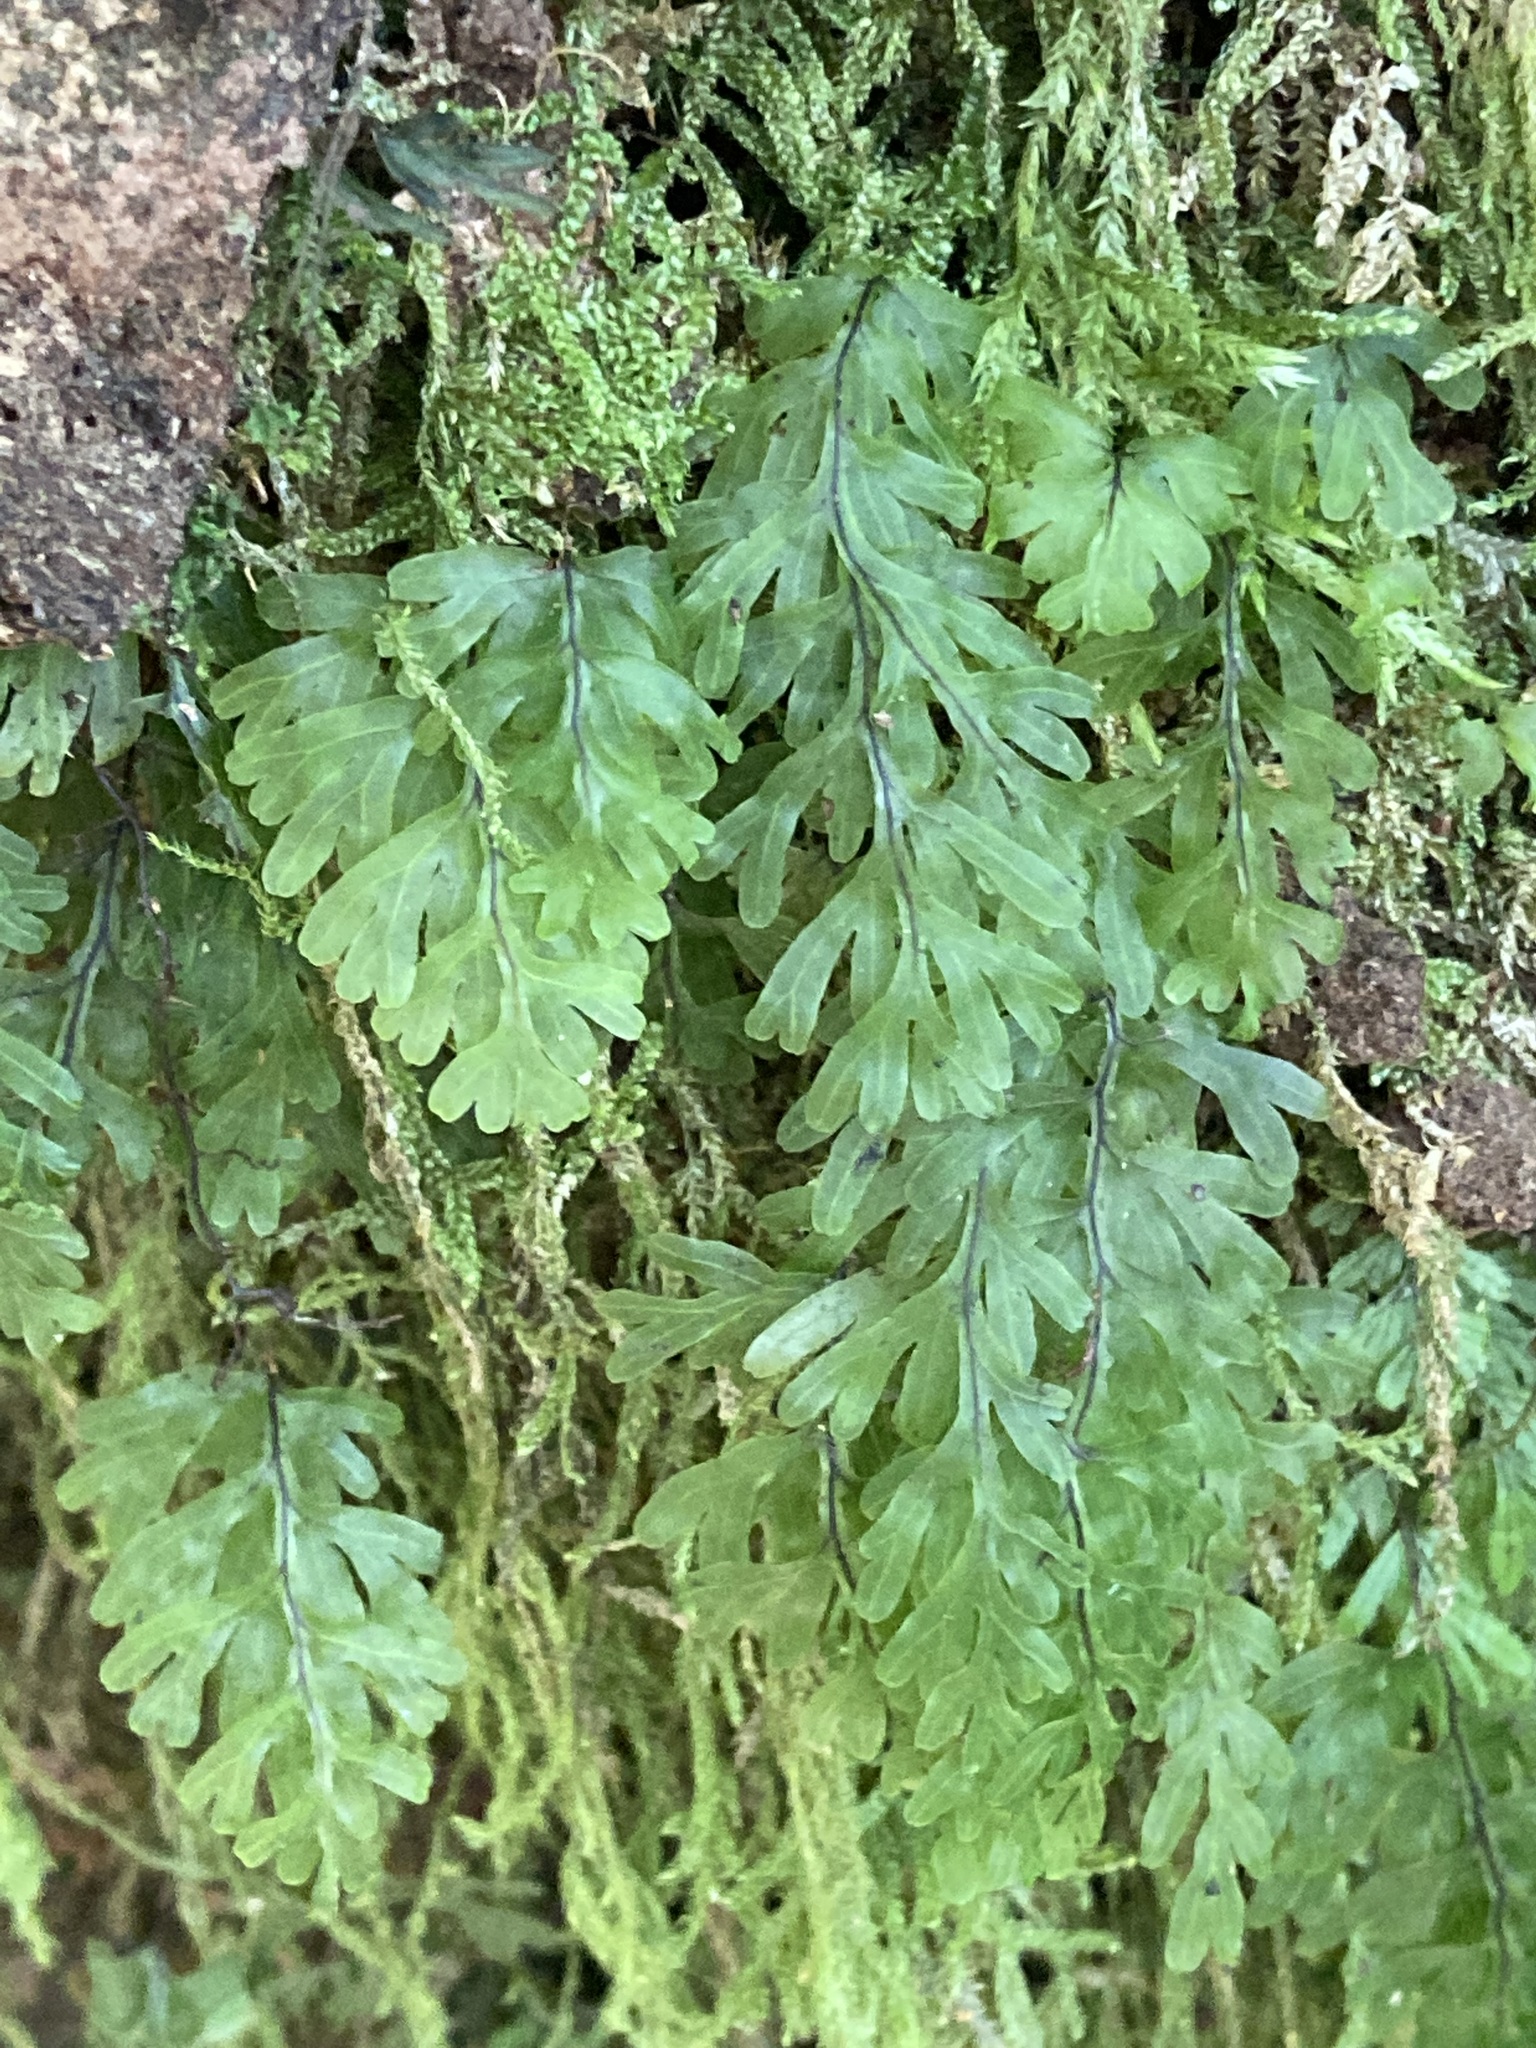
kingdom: Plantae
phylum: Tracheophyta
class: Polypodiopsida
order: Hymenophyllales
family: Hymenophyllaceae
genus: Hymenophyllum
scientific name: Hymenophyllum rarum
